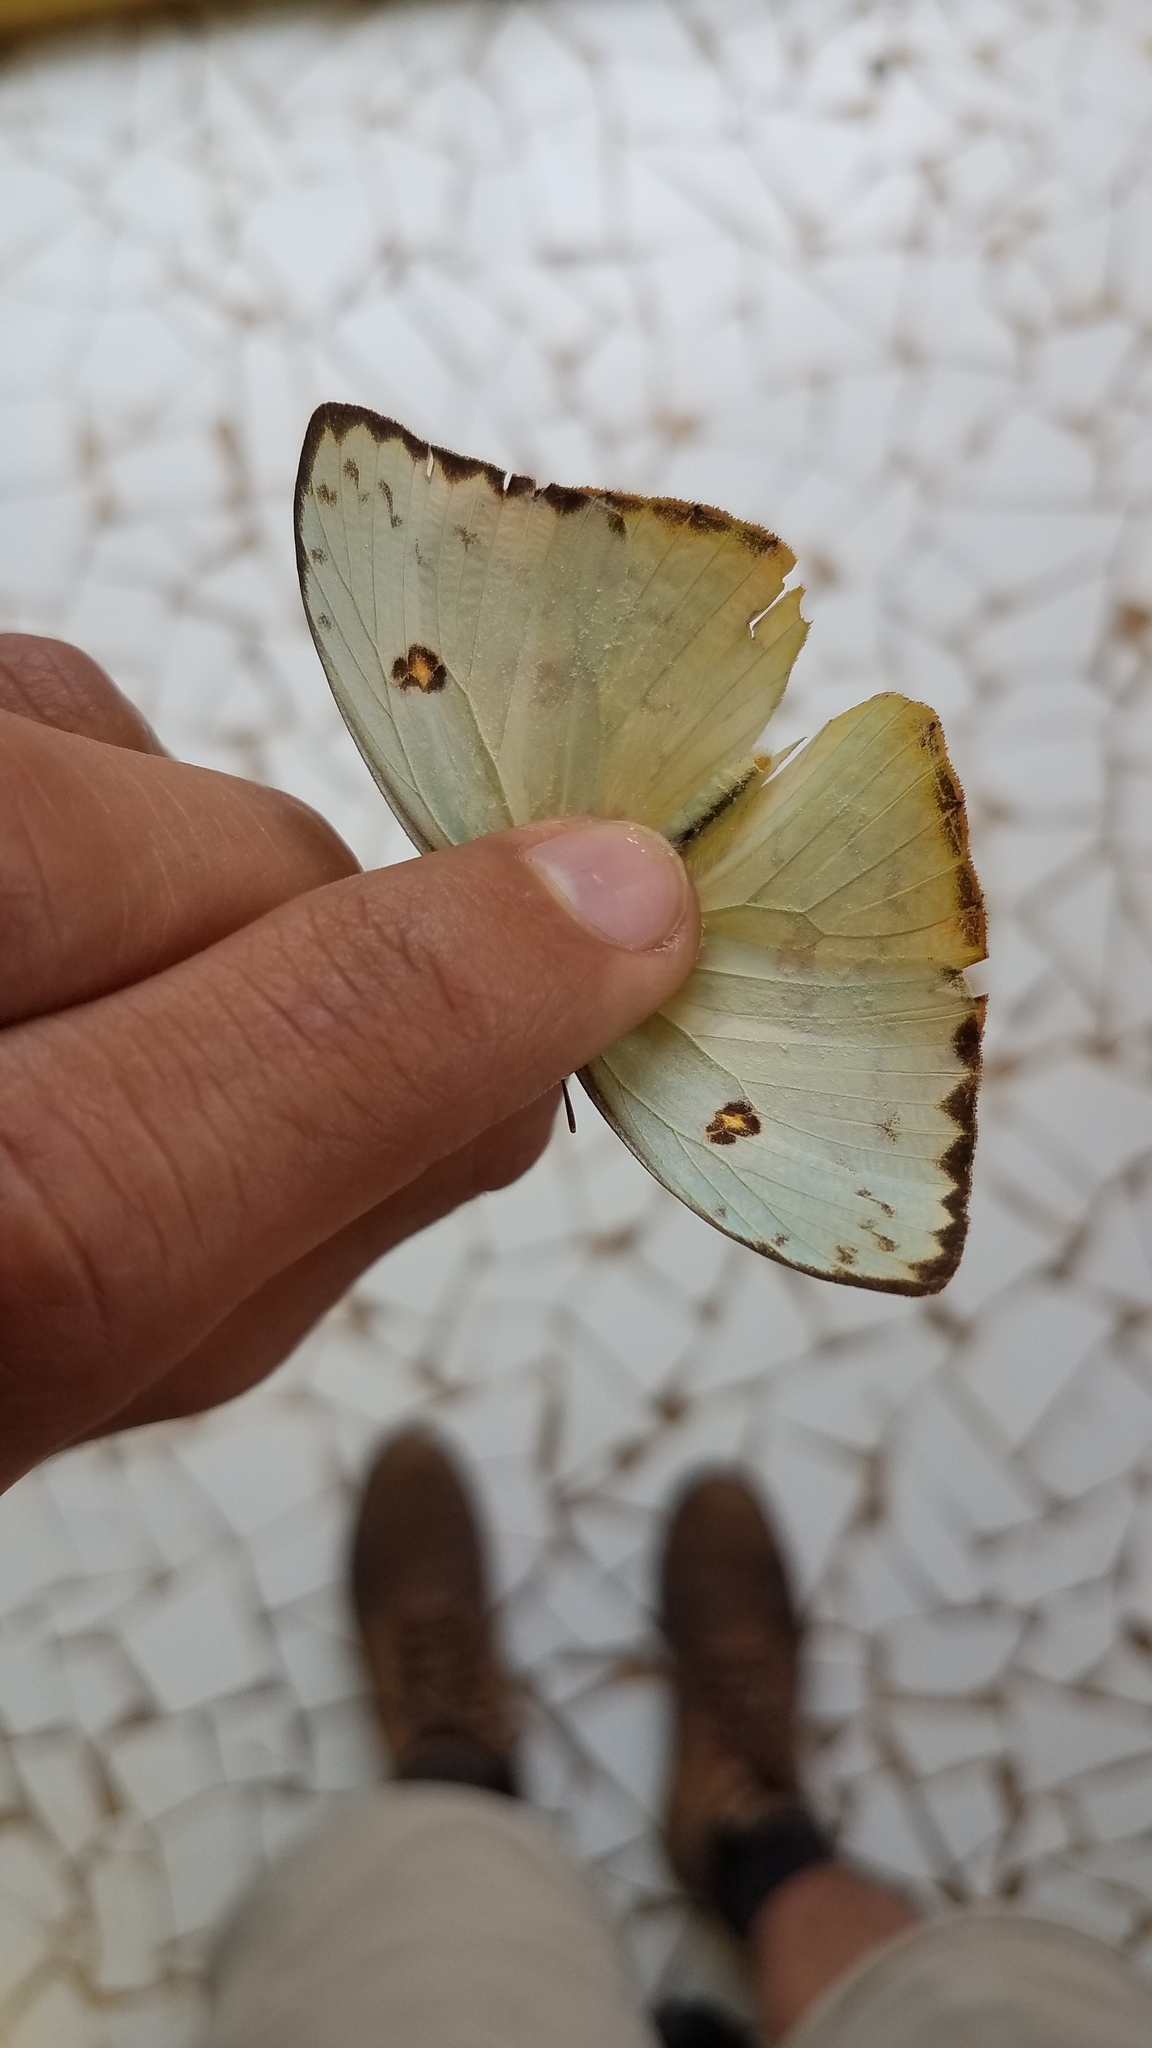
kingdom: Animalia
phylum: Arthropoda
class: Insecta
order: Lepidoptera
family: Pieridae
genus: Phoebis
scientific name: Phoebis marcellina
